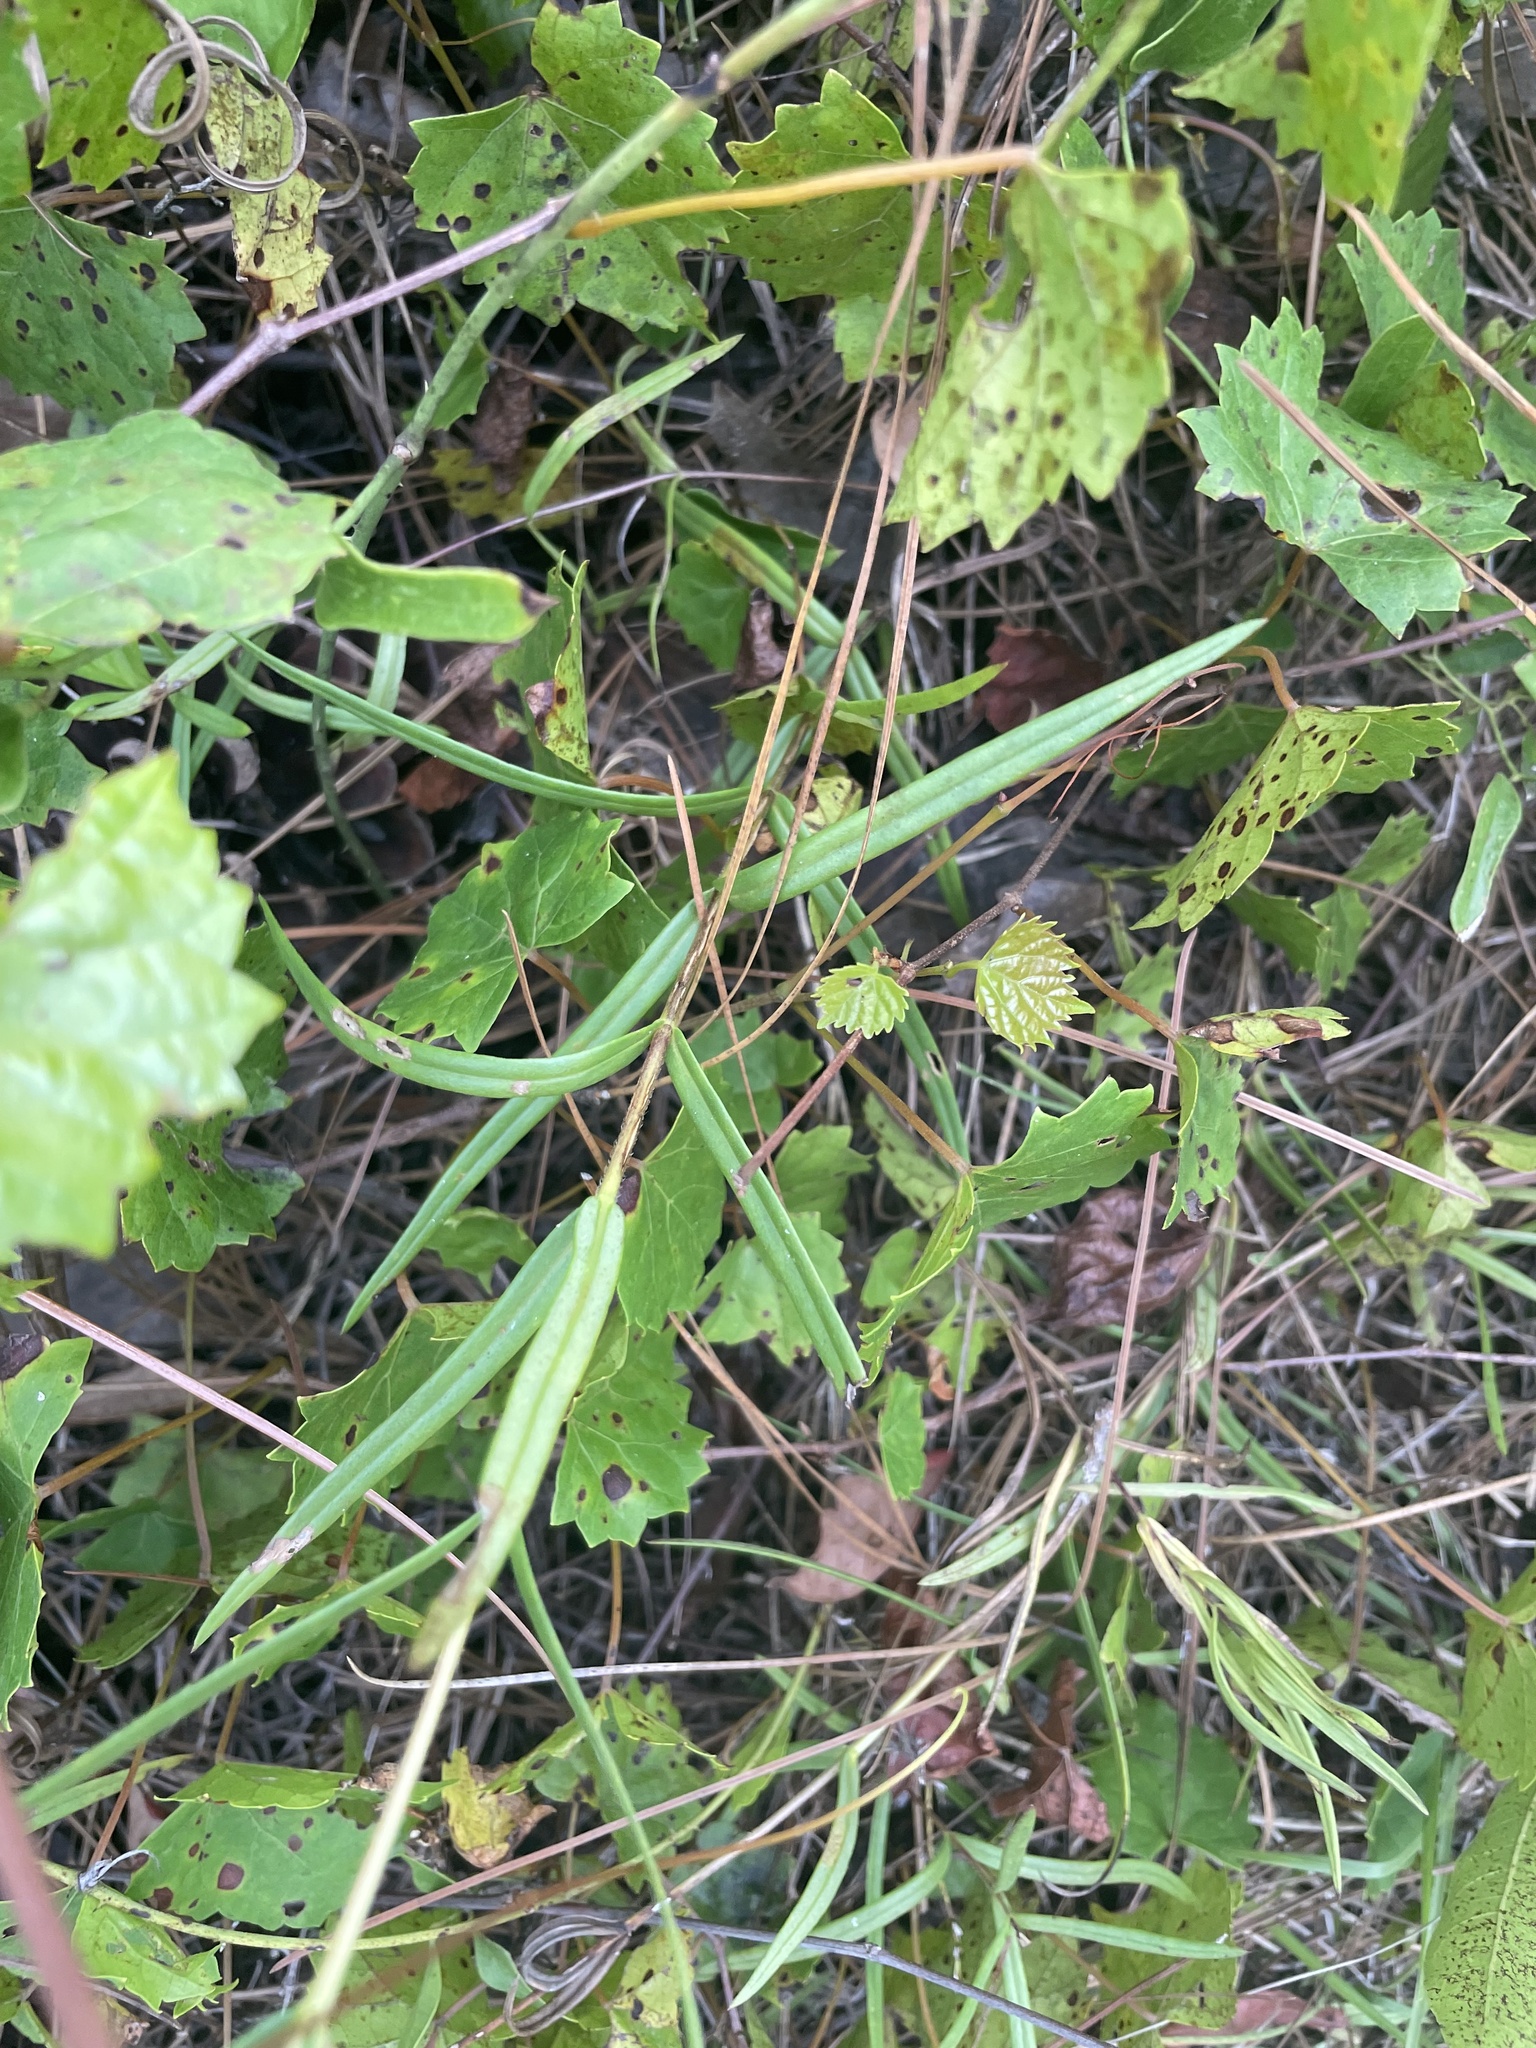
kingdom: Plantae
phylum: Tracheophyta
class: Magnoliopsida
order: Ericales
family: Polemoniaceae
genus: Phlox
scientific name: Phlox floridana
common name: Florida phlox
